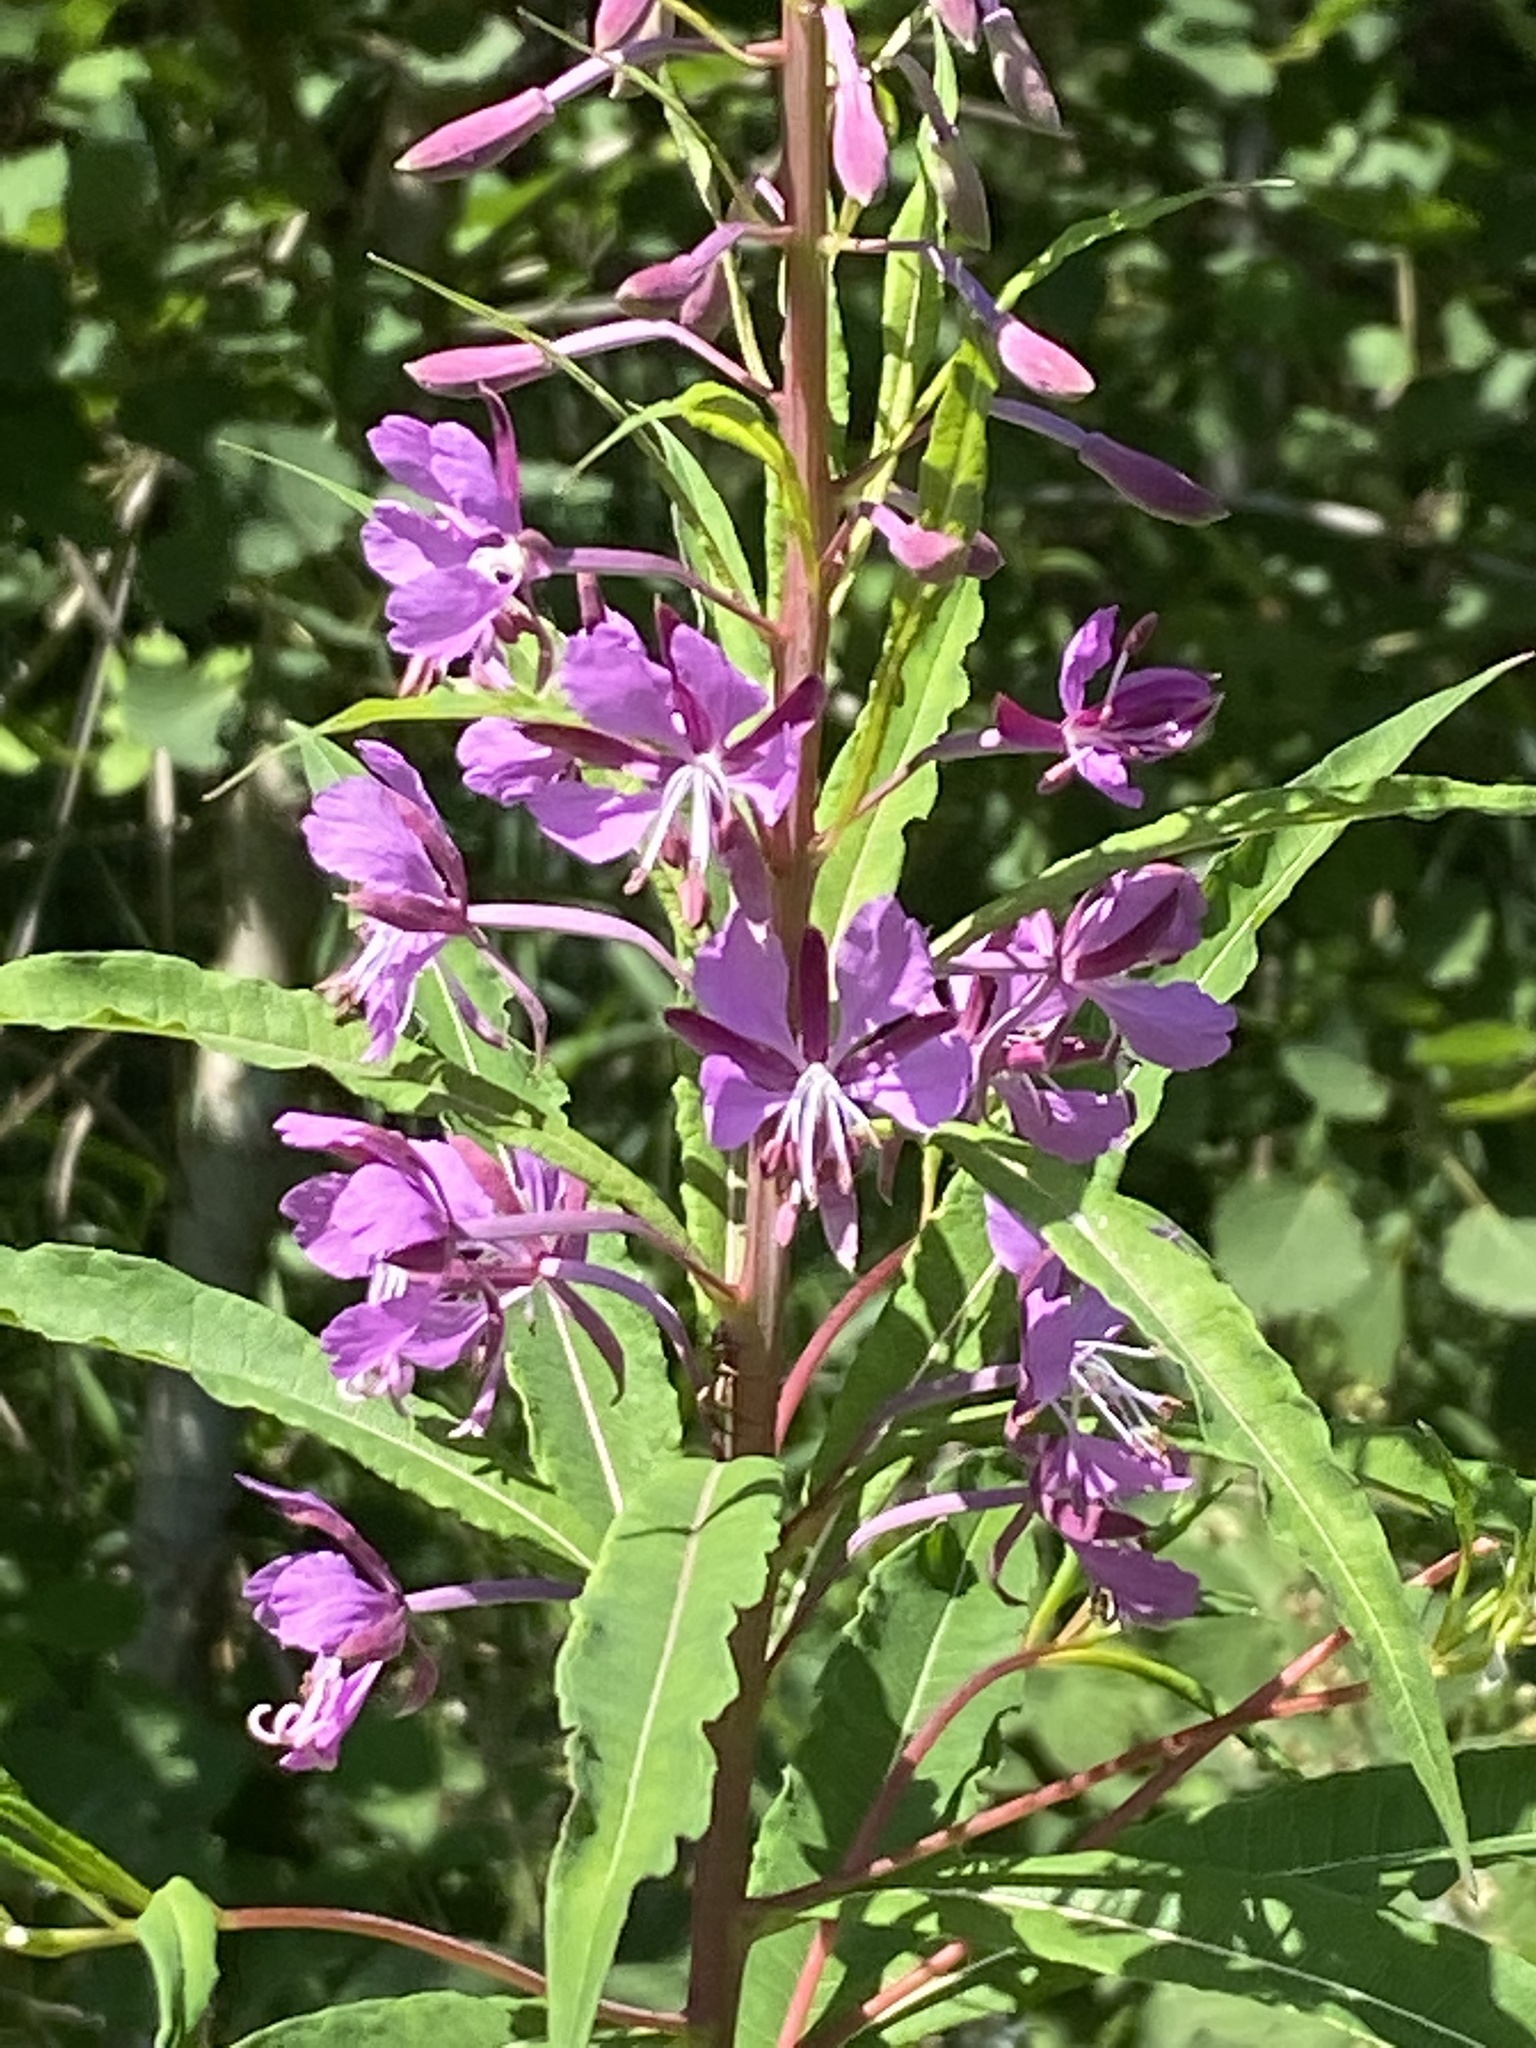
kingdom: Plantae
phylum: Tracheophyta
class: Magnoliopsida
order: Myrtales
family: Onagraceae
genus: Chamaenerion
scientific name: Chamaenerion angustifolium
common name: Fireweed
